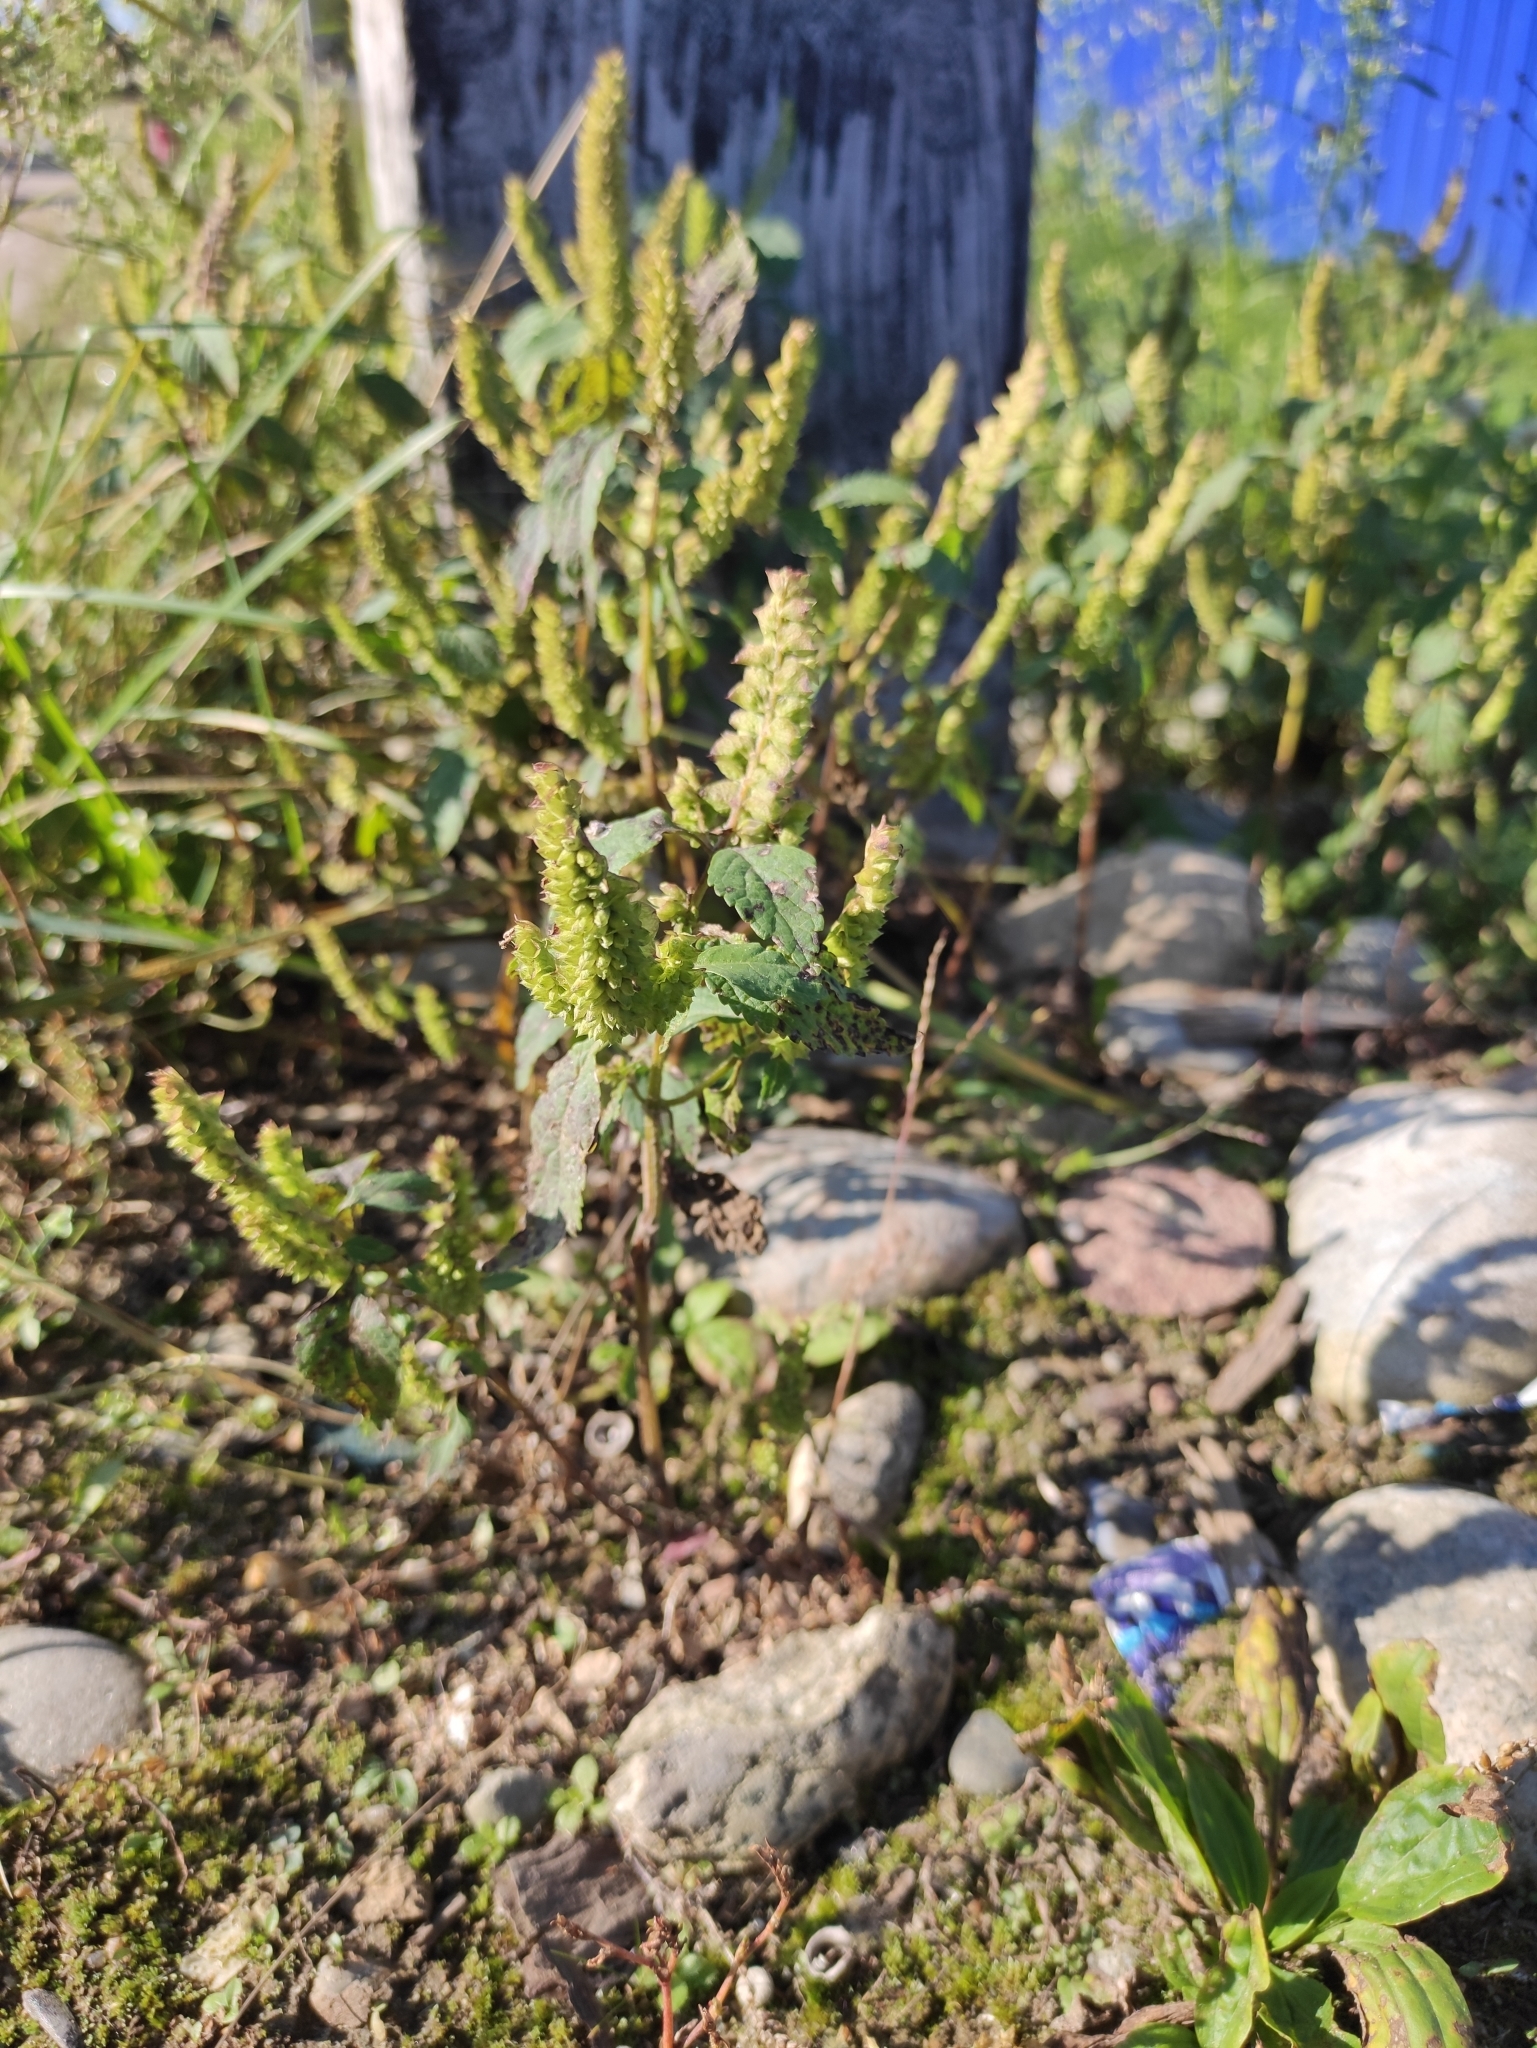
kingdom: Plantae
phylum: Tracheophyta
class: Magnoliopsida
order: Lamiales
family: Lamiaceae
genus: Elsholtzia
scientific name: Elsholtzia ciliata
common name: Ciliate elsholtzia
